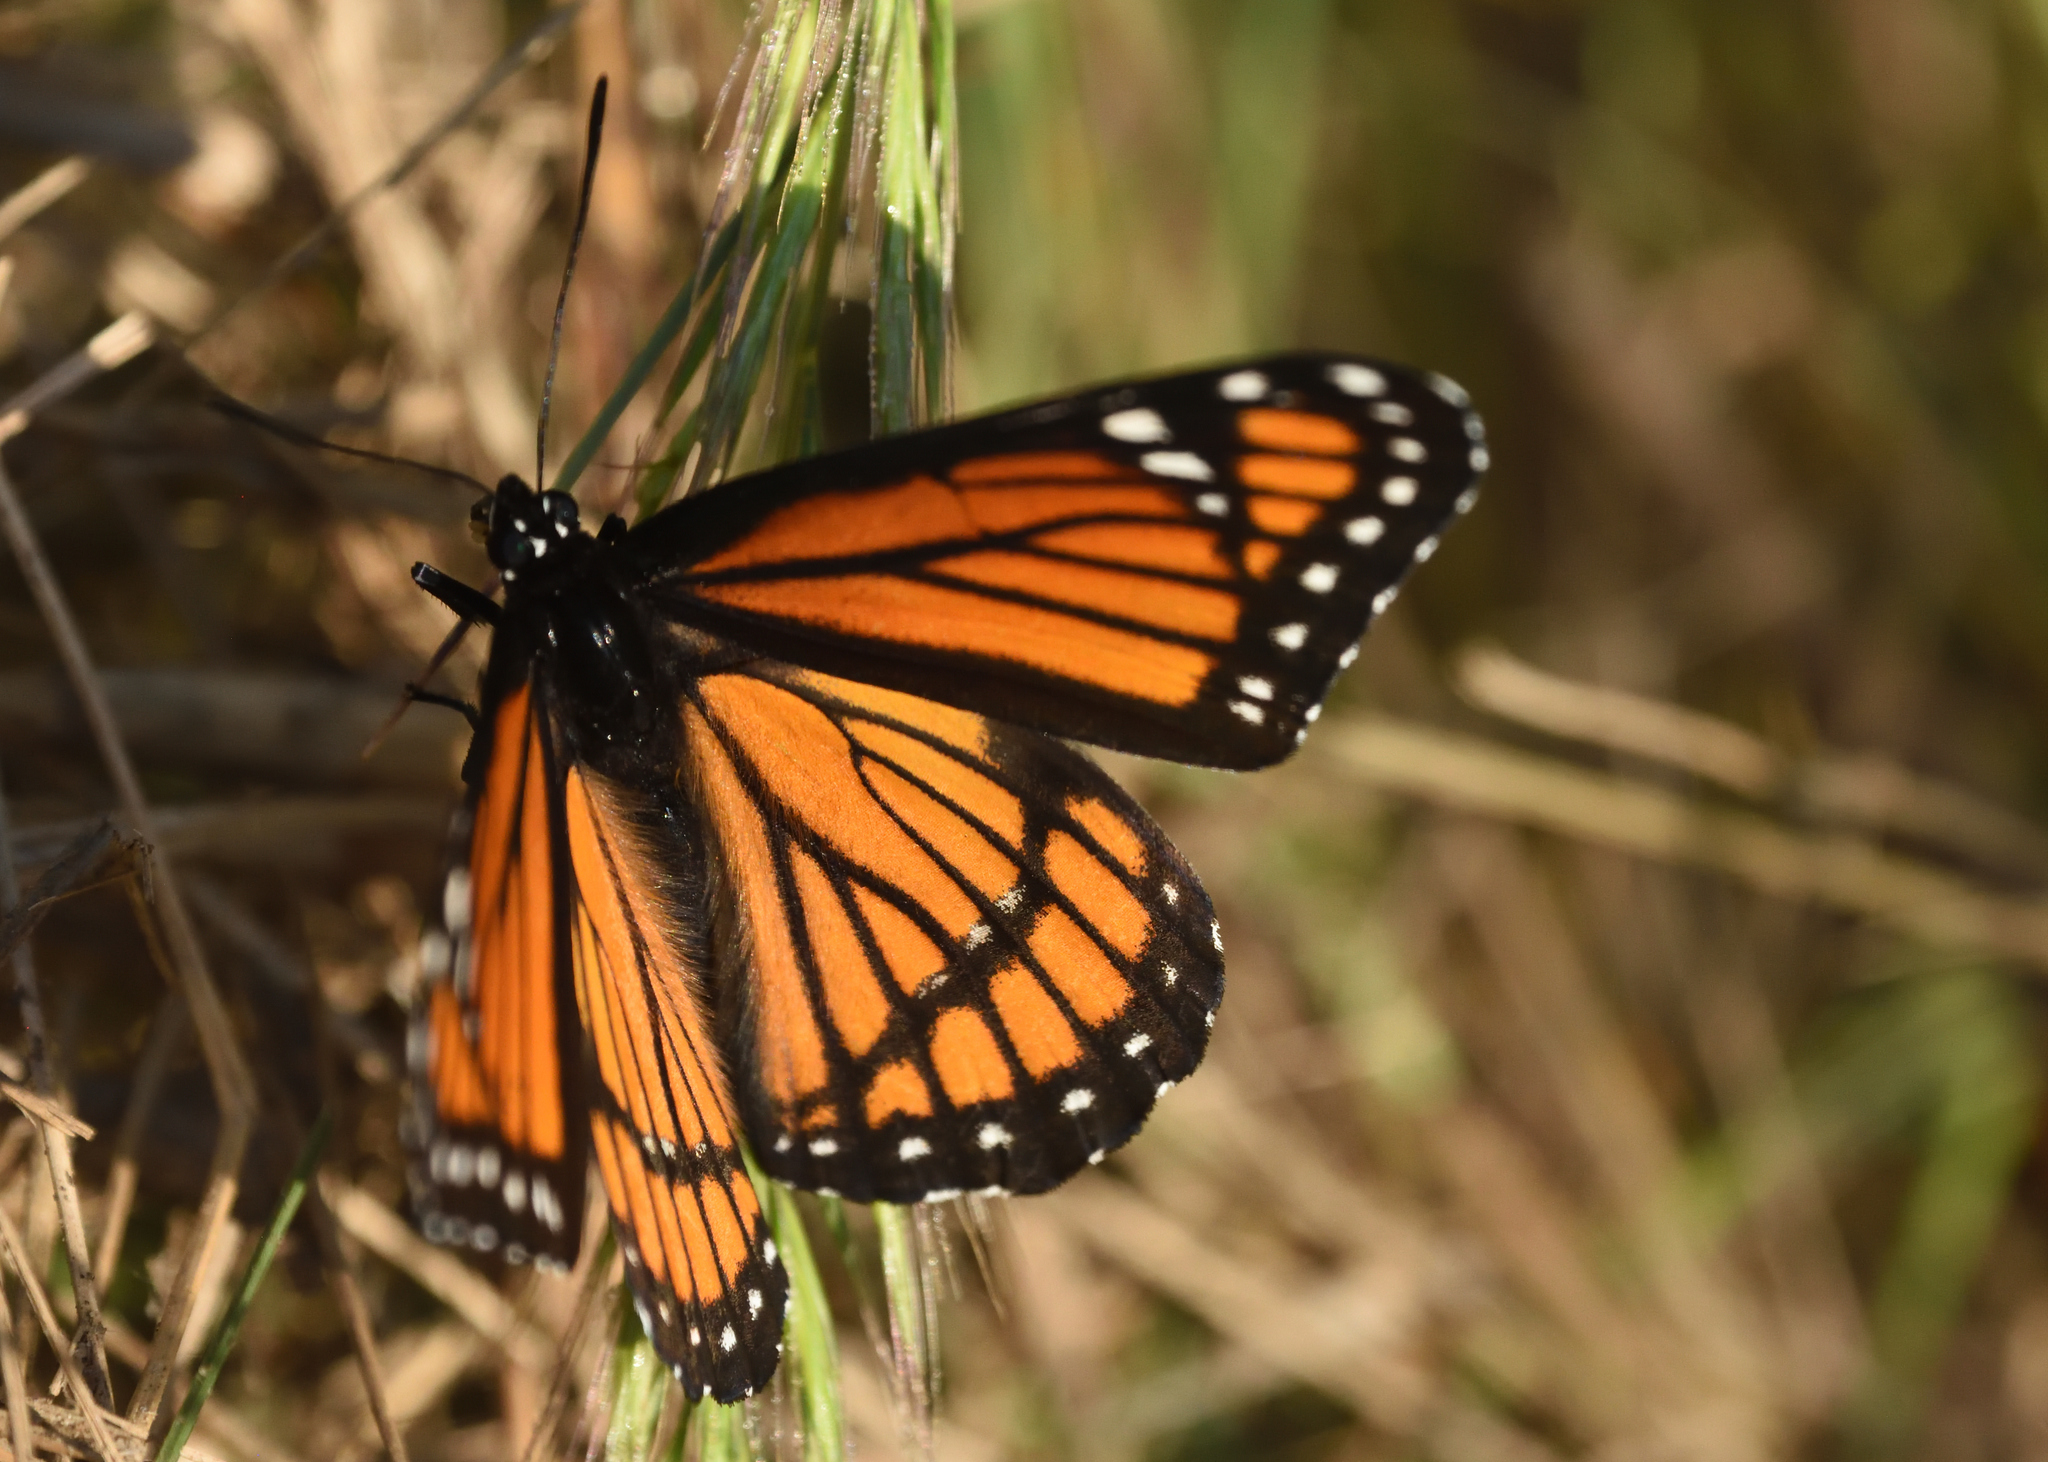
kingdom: Animalia
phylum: Arthropoda
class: Insecta
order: Lepidoptera
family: Nymphalidae
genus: Limenitis
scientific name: Limenitis archippus
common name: Viceroy
